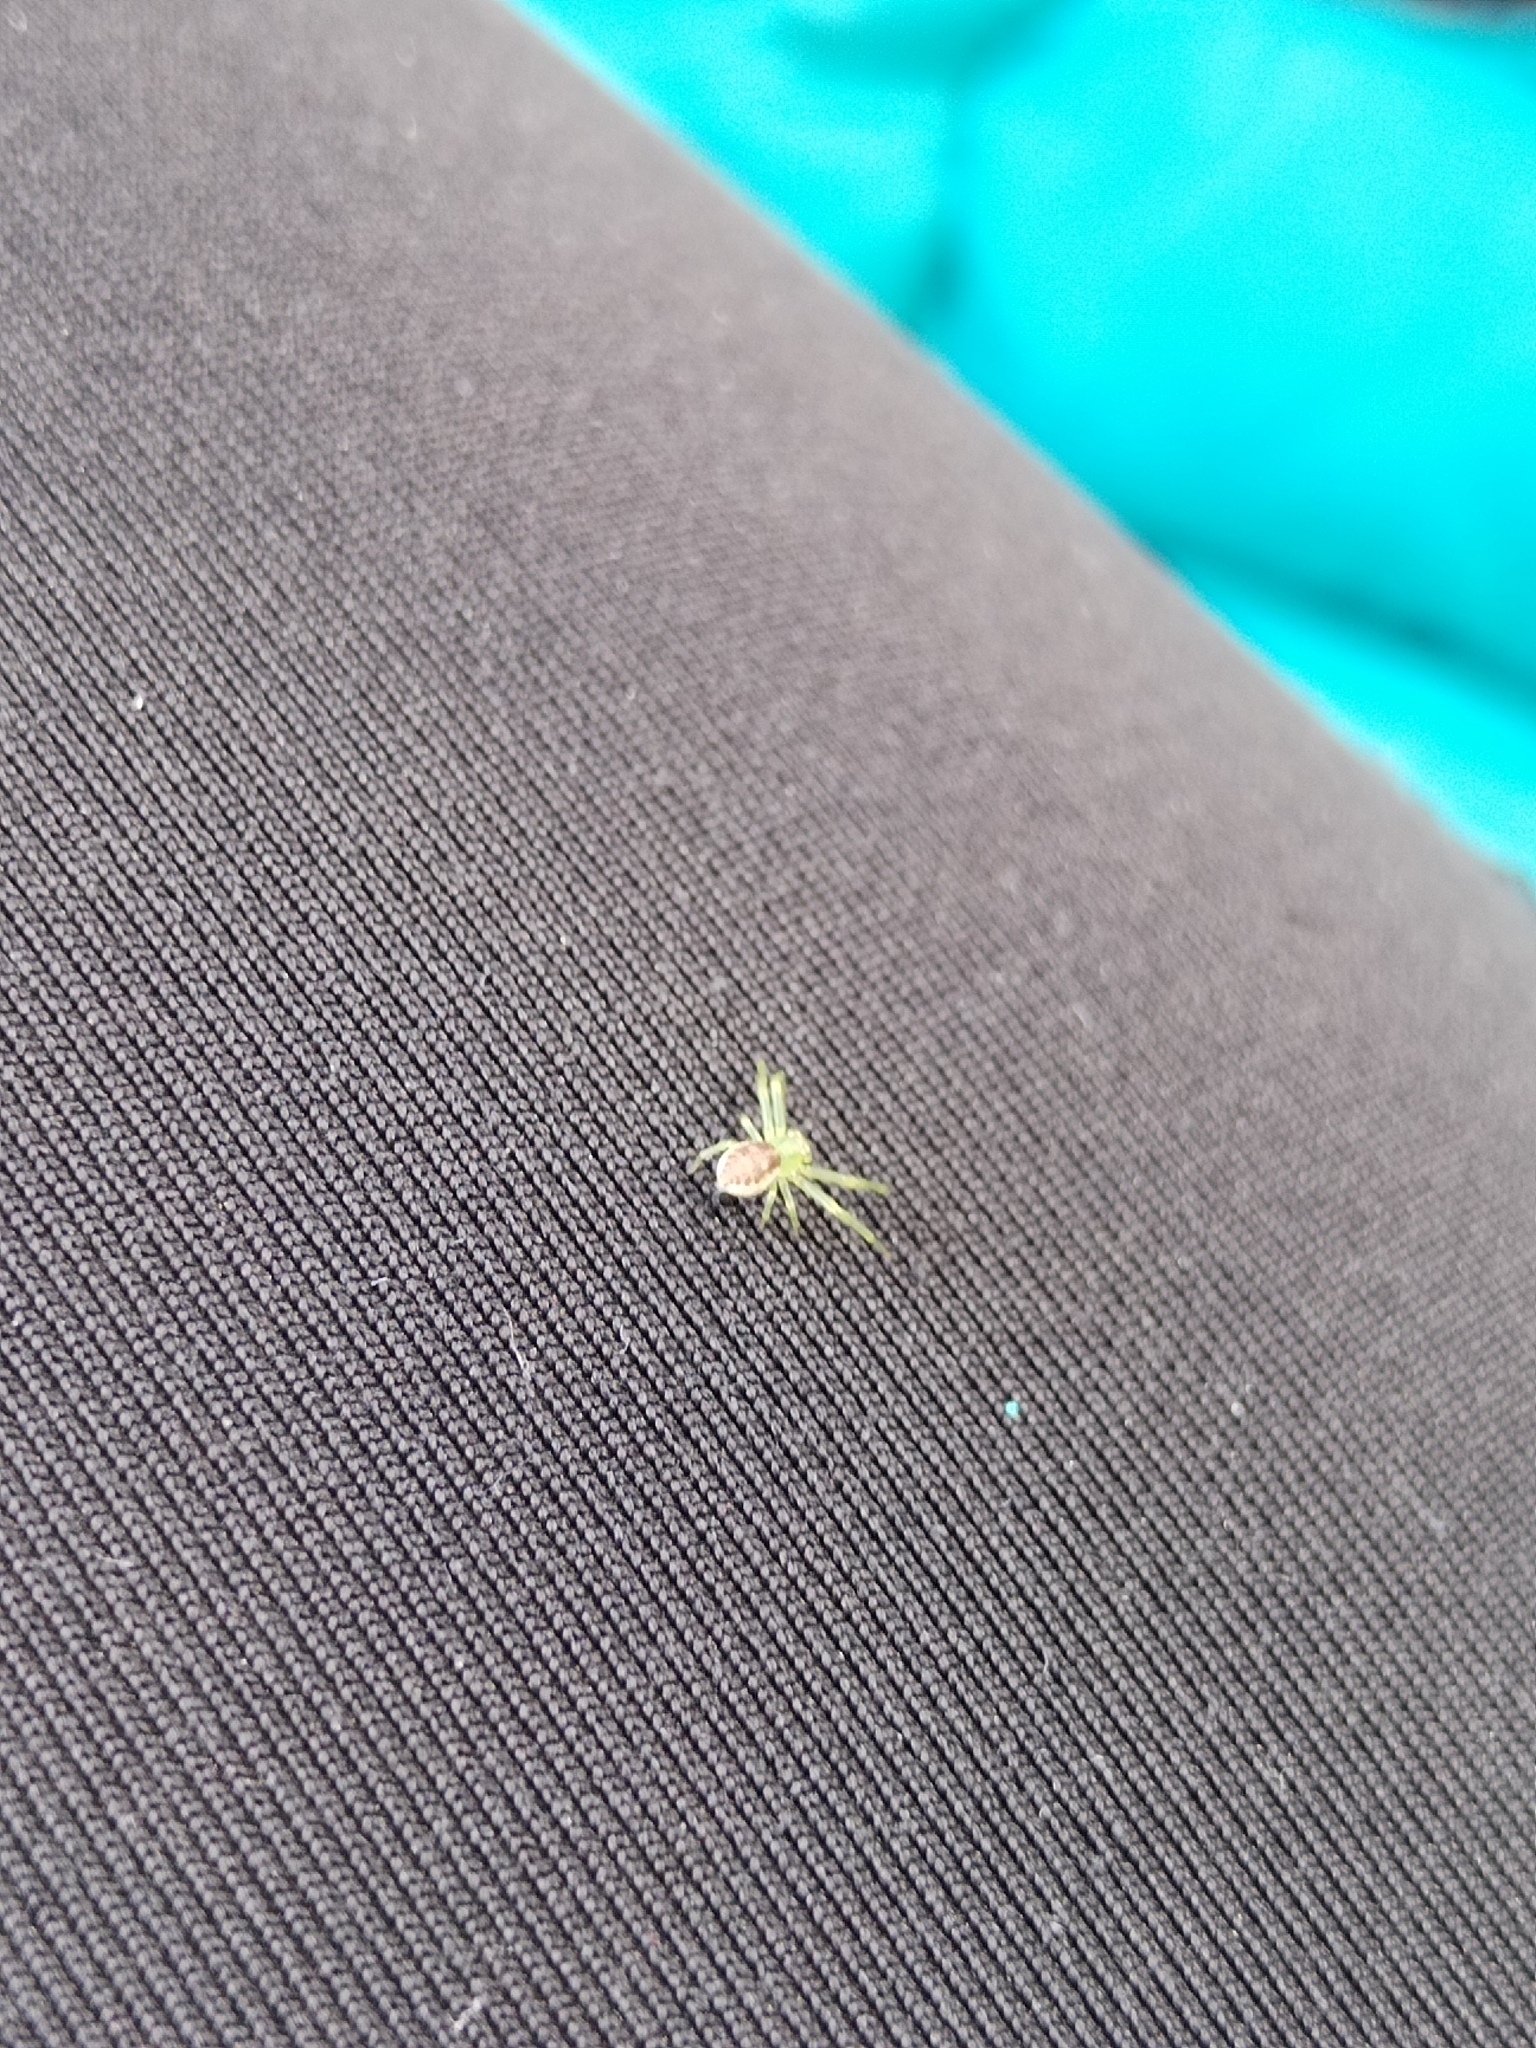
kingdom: Animalia
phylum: Arthropoda
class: Arachnida
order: Araneae
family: Thomisidae
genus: Diaea
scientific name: Diaea dorsata
